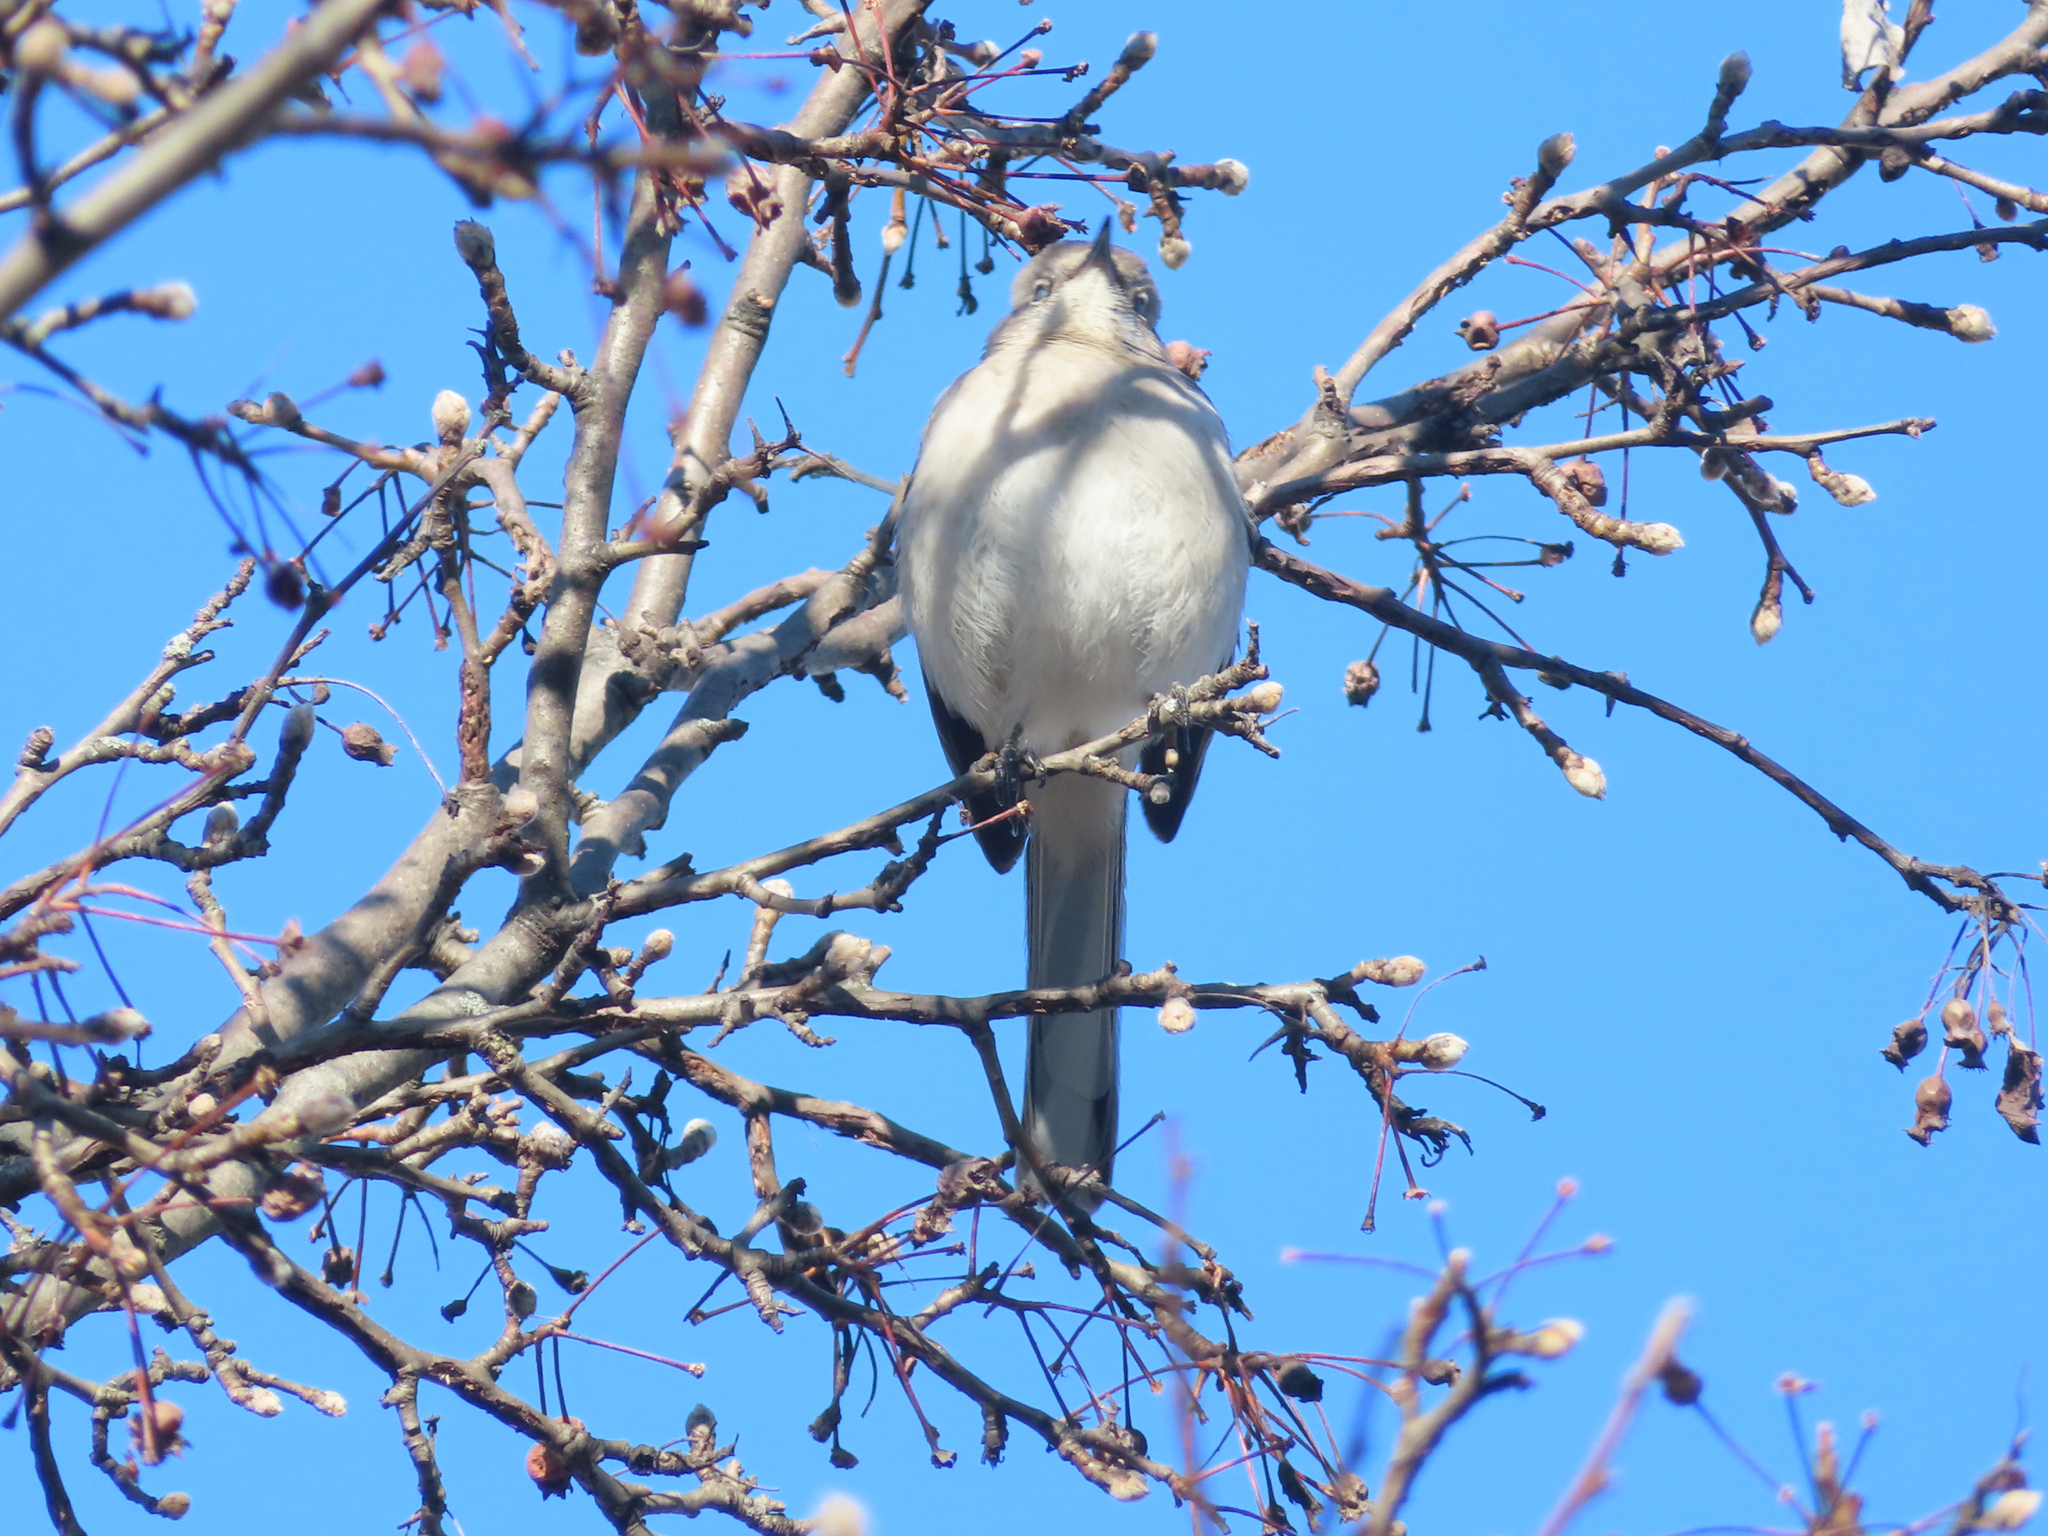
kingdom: Animalia
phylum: Chordata
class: Aves
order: Passeriformes
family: Mimidae
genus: Mimus
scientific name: Mimus polyglottos
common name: Northern mockingbird
